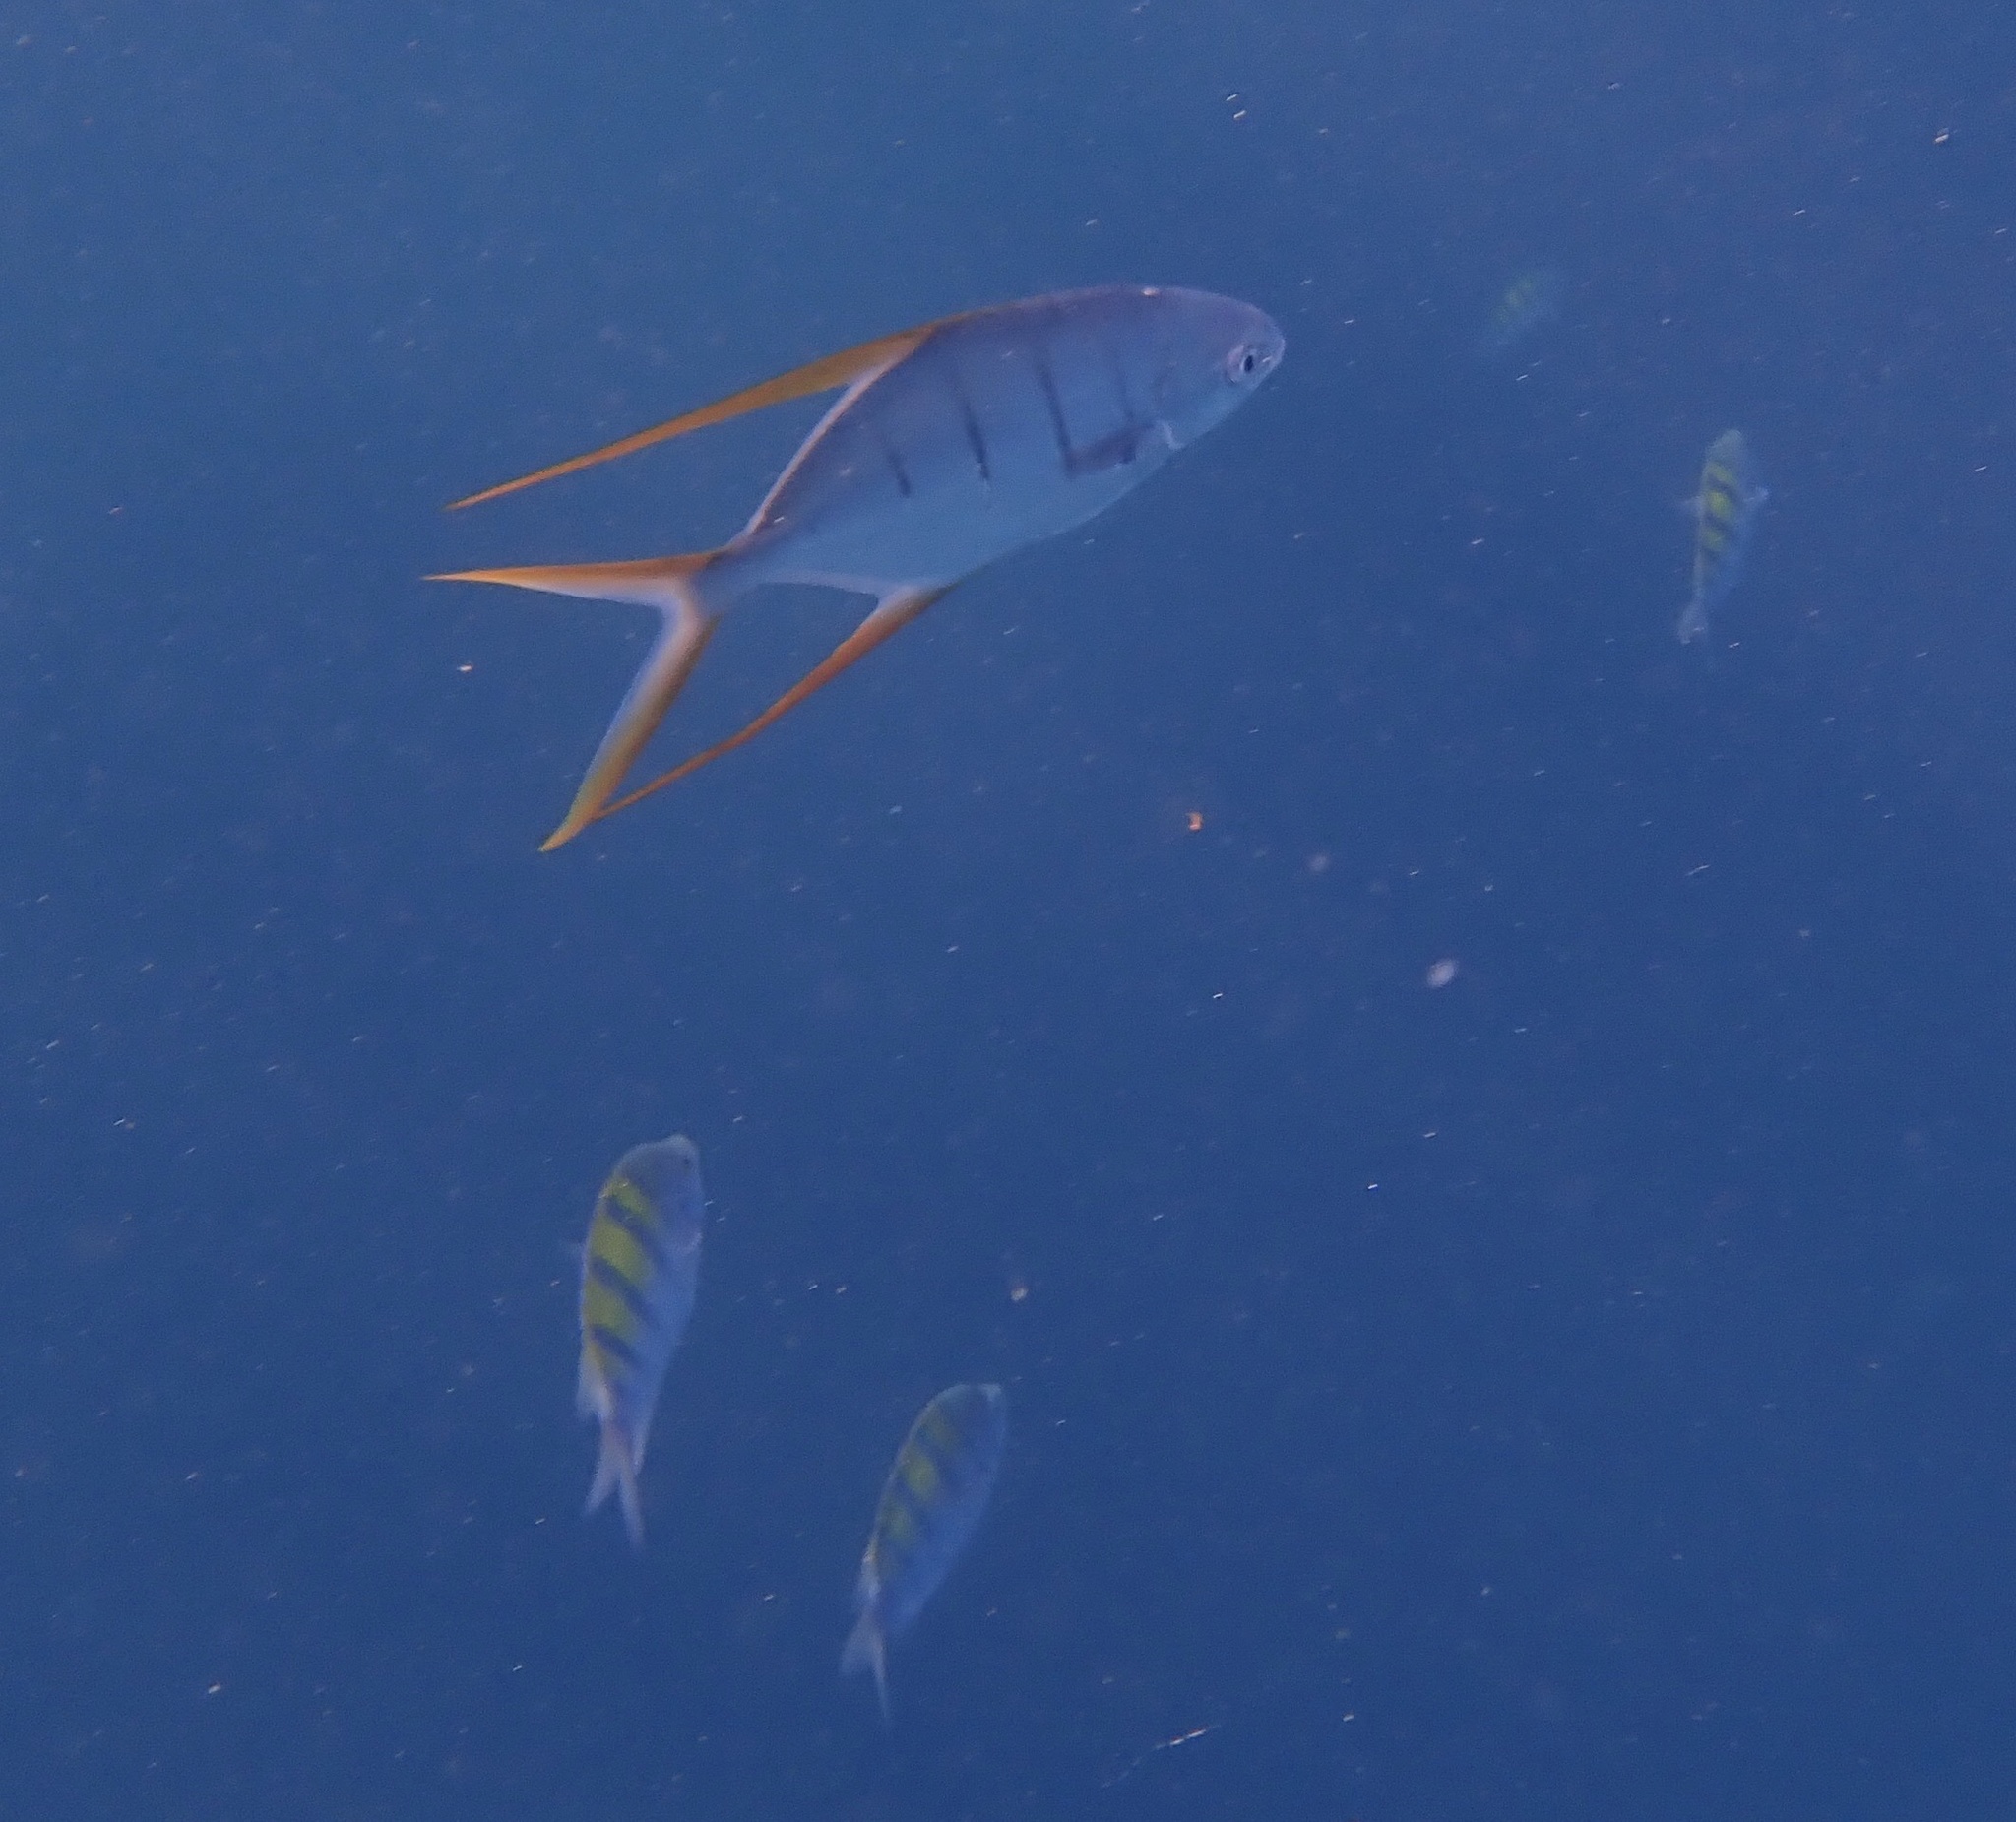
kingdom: Animalia
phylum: Chordata
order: Perciformes
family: Carangidae
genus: Trachinotus
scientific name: Trachinotus rhodopus
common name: Gafftopsail pompano
